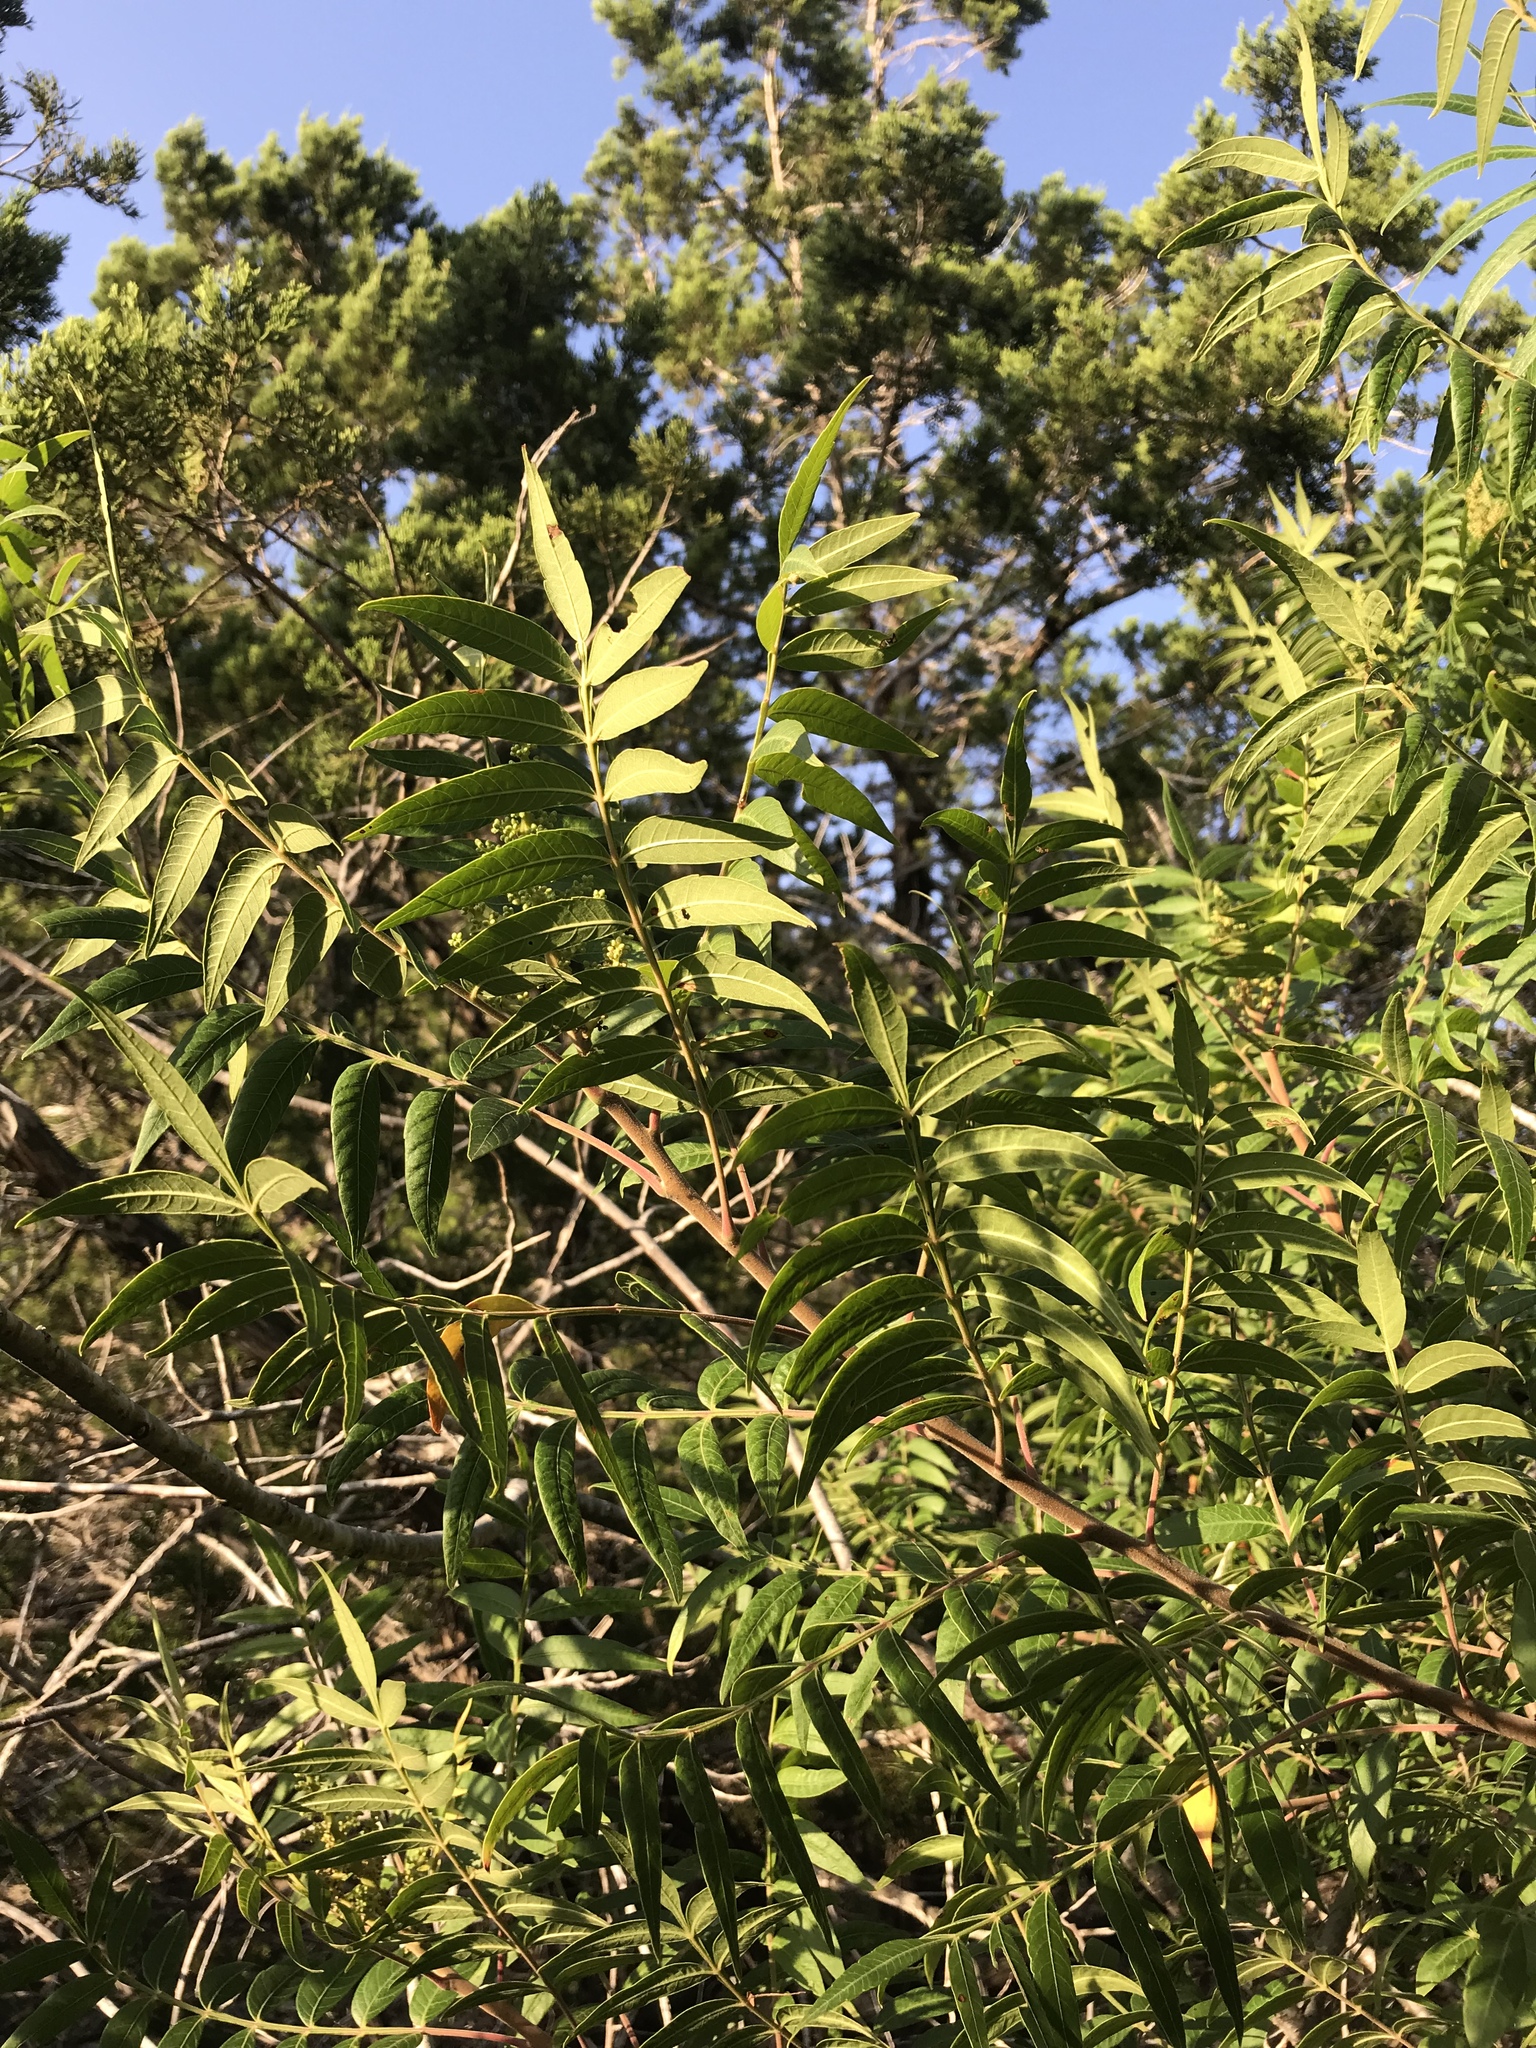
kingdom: Plantae
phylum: Tracheophyta
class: Magnoliopsida
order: Sapindales
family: Anacardiaceae
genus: Rhus
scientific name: Rhus lanceolata
